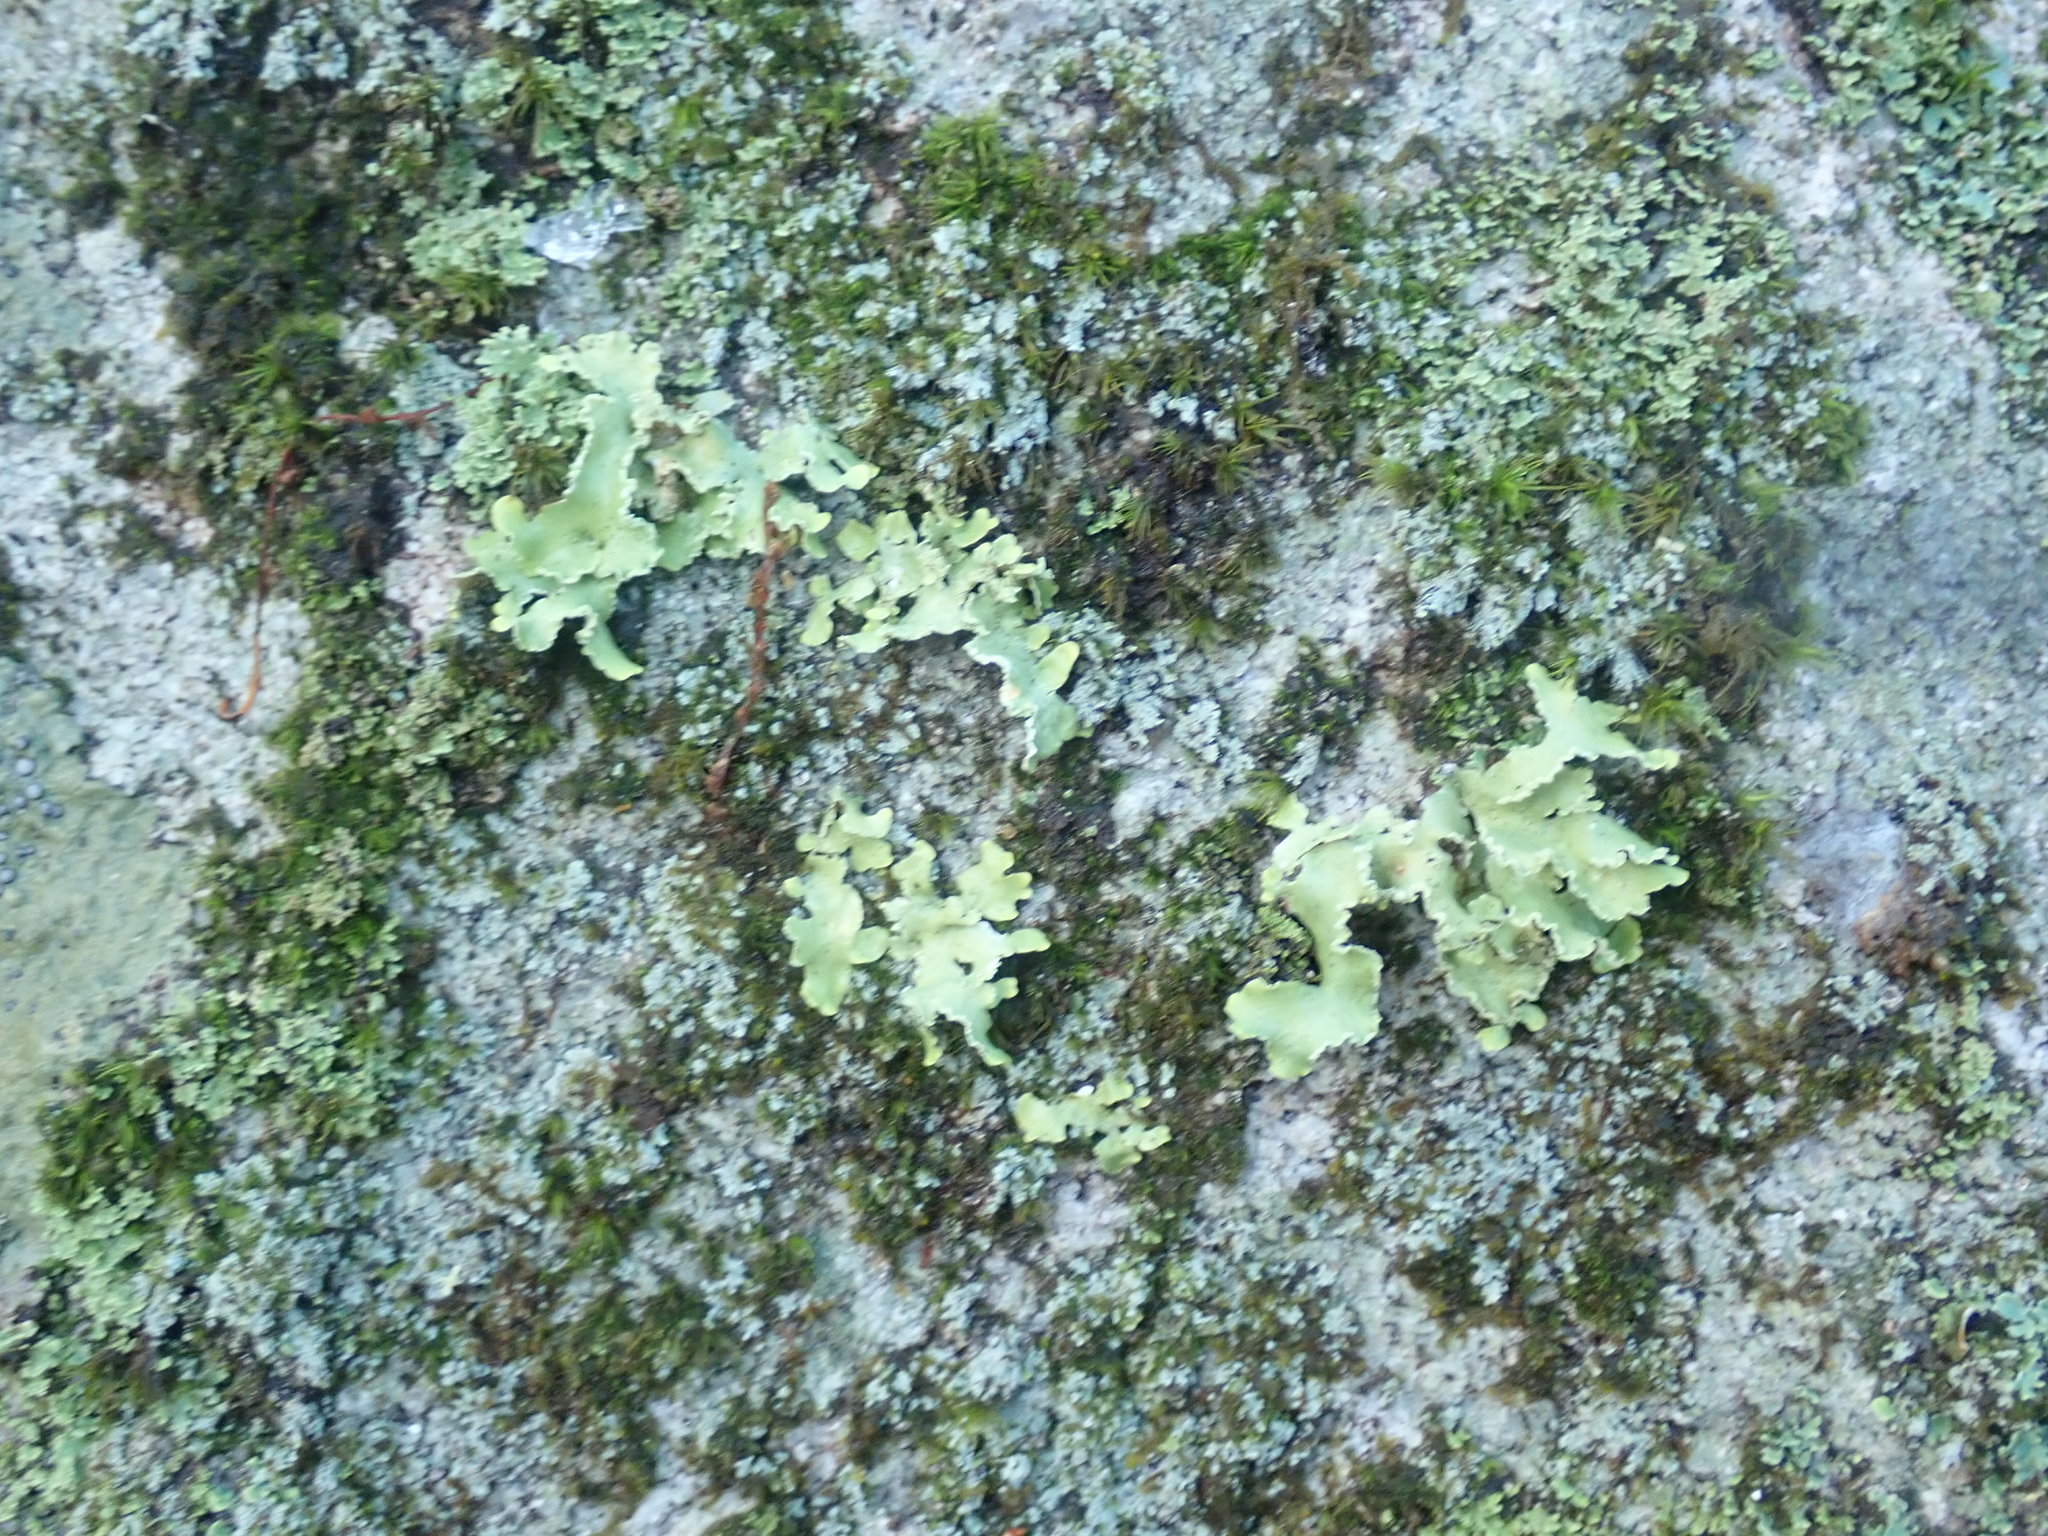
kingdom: Fungi
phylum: Ascomycota
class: Lecanoromycetes
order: Lecanorales
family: Parmeliaceae
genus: Usnocetraria
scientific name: Usnocetraria oakesiana
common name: Yellow ribbon lichen
